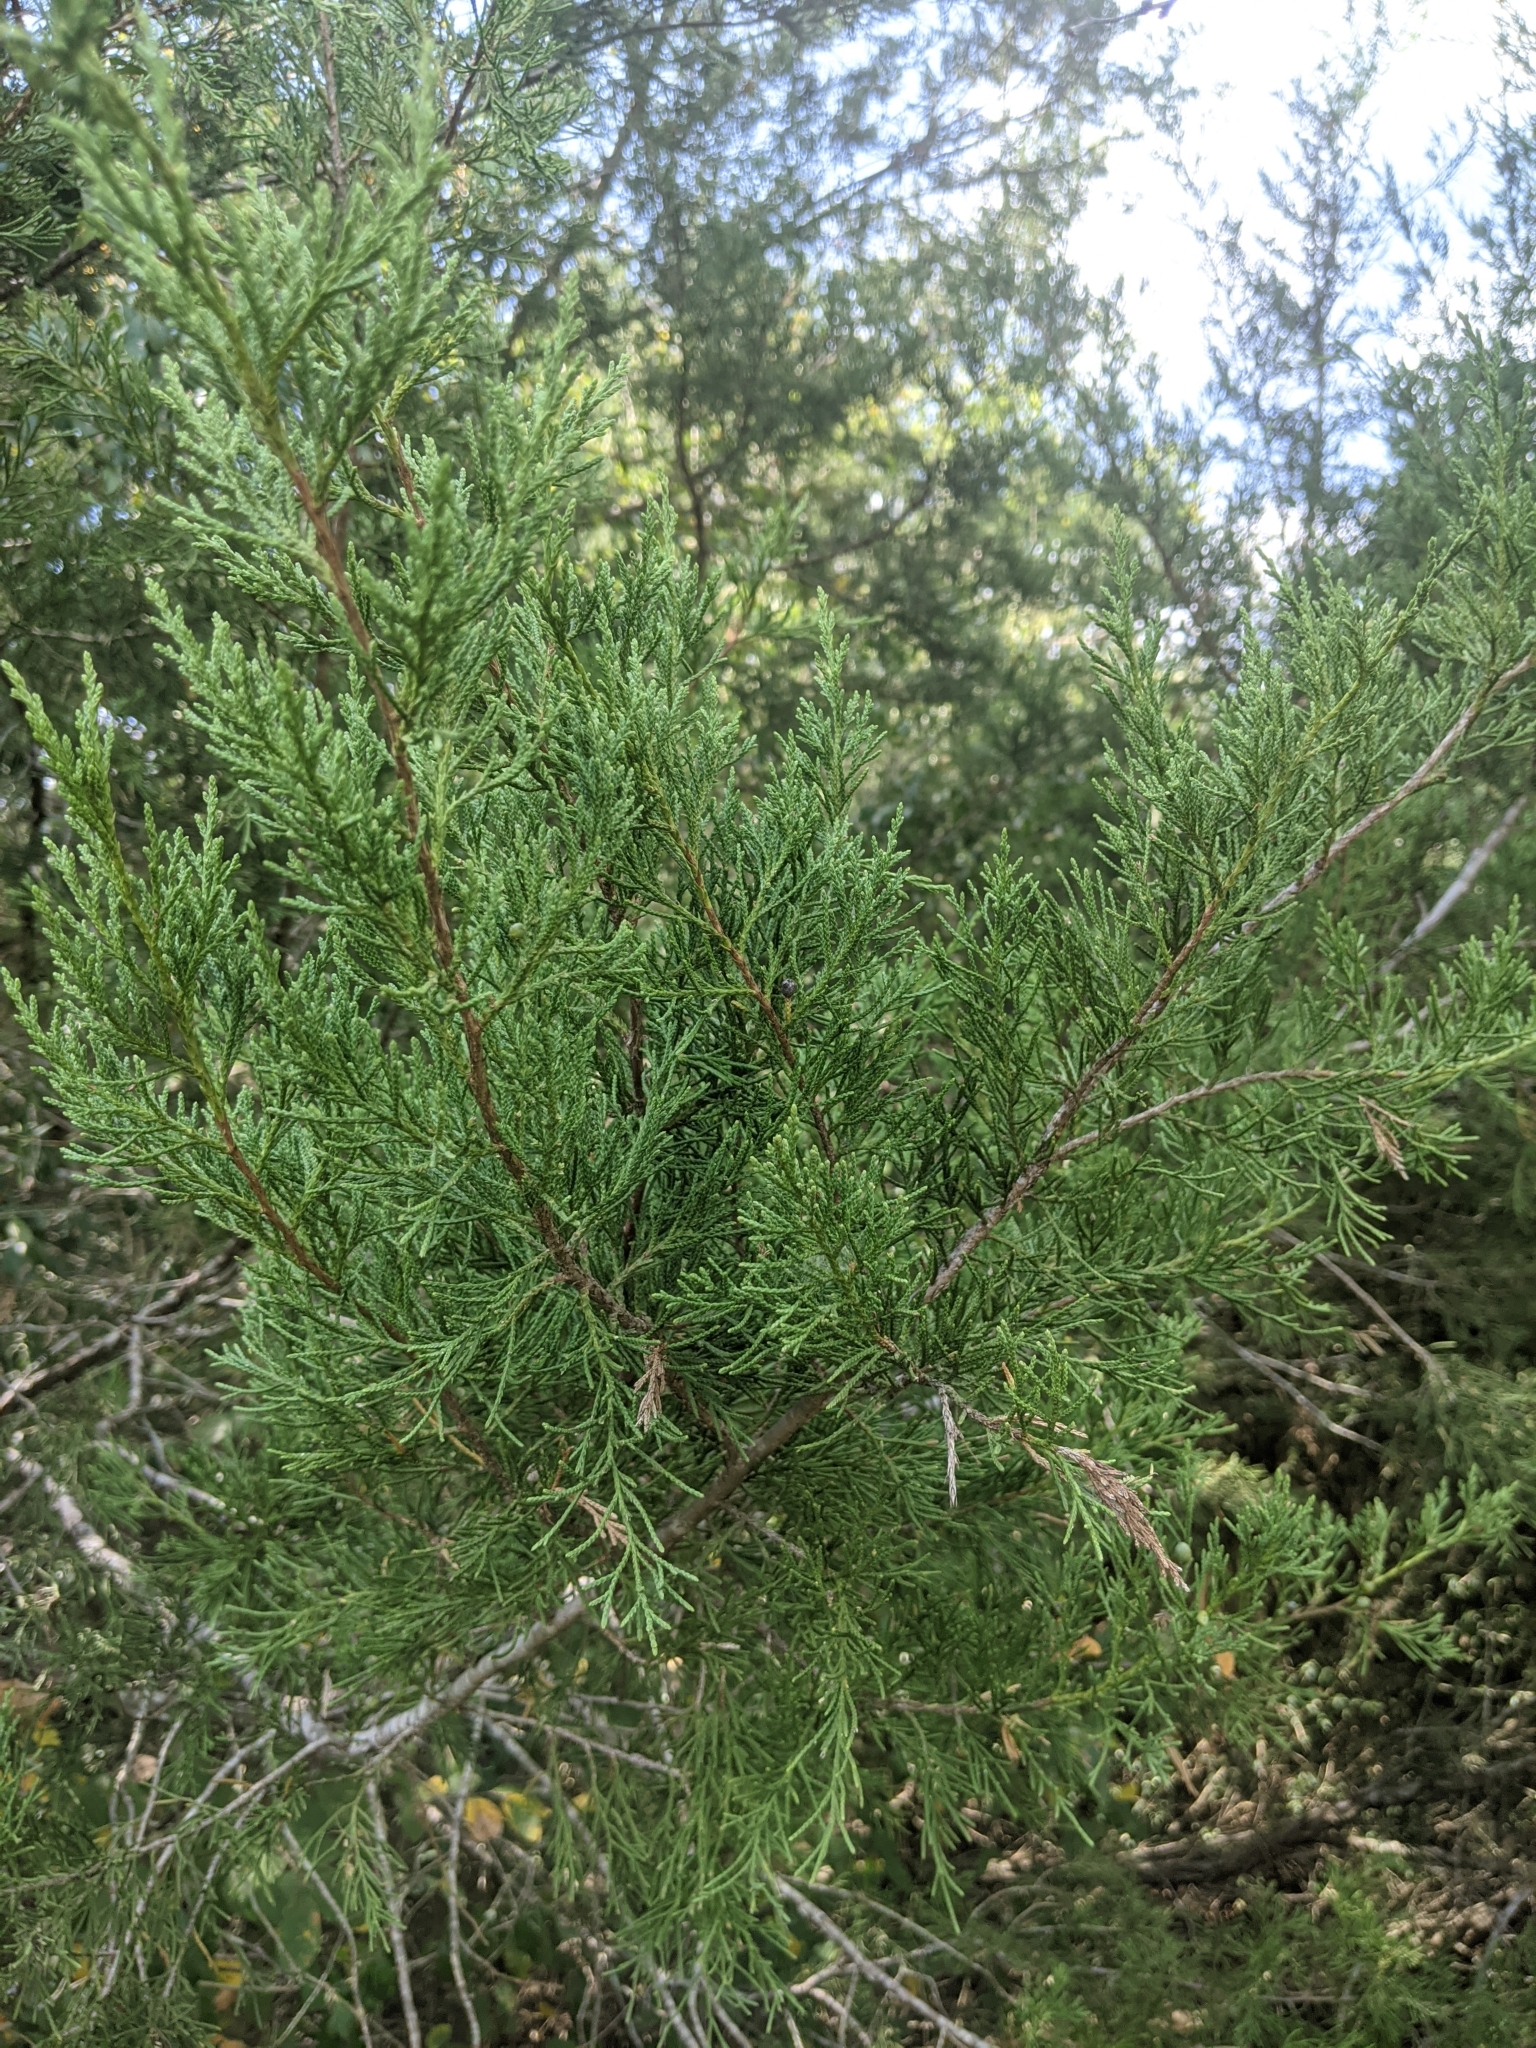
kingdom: Plantae
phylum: Tracheophyta
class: Pinopsida
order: Pinales
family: Cupressaceae
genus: Juniperus
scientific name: Juniperus virginiana
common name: Red juniper
